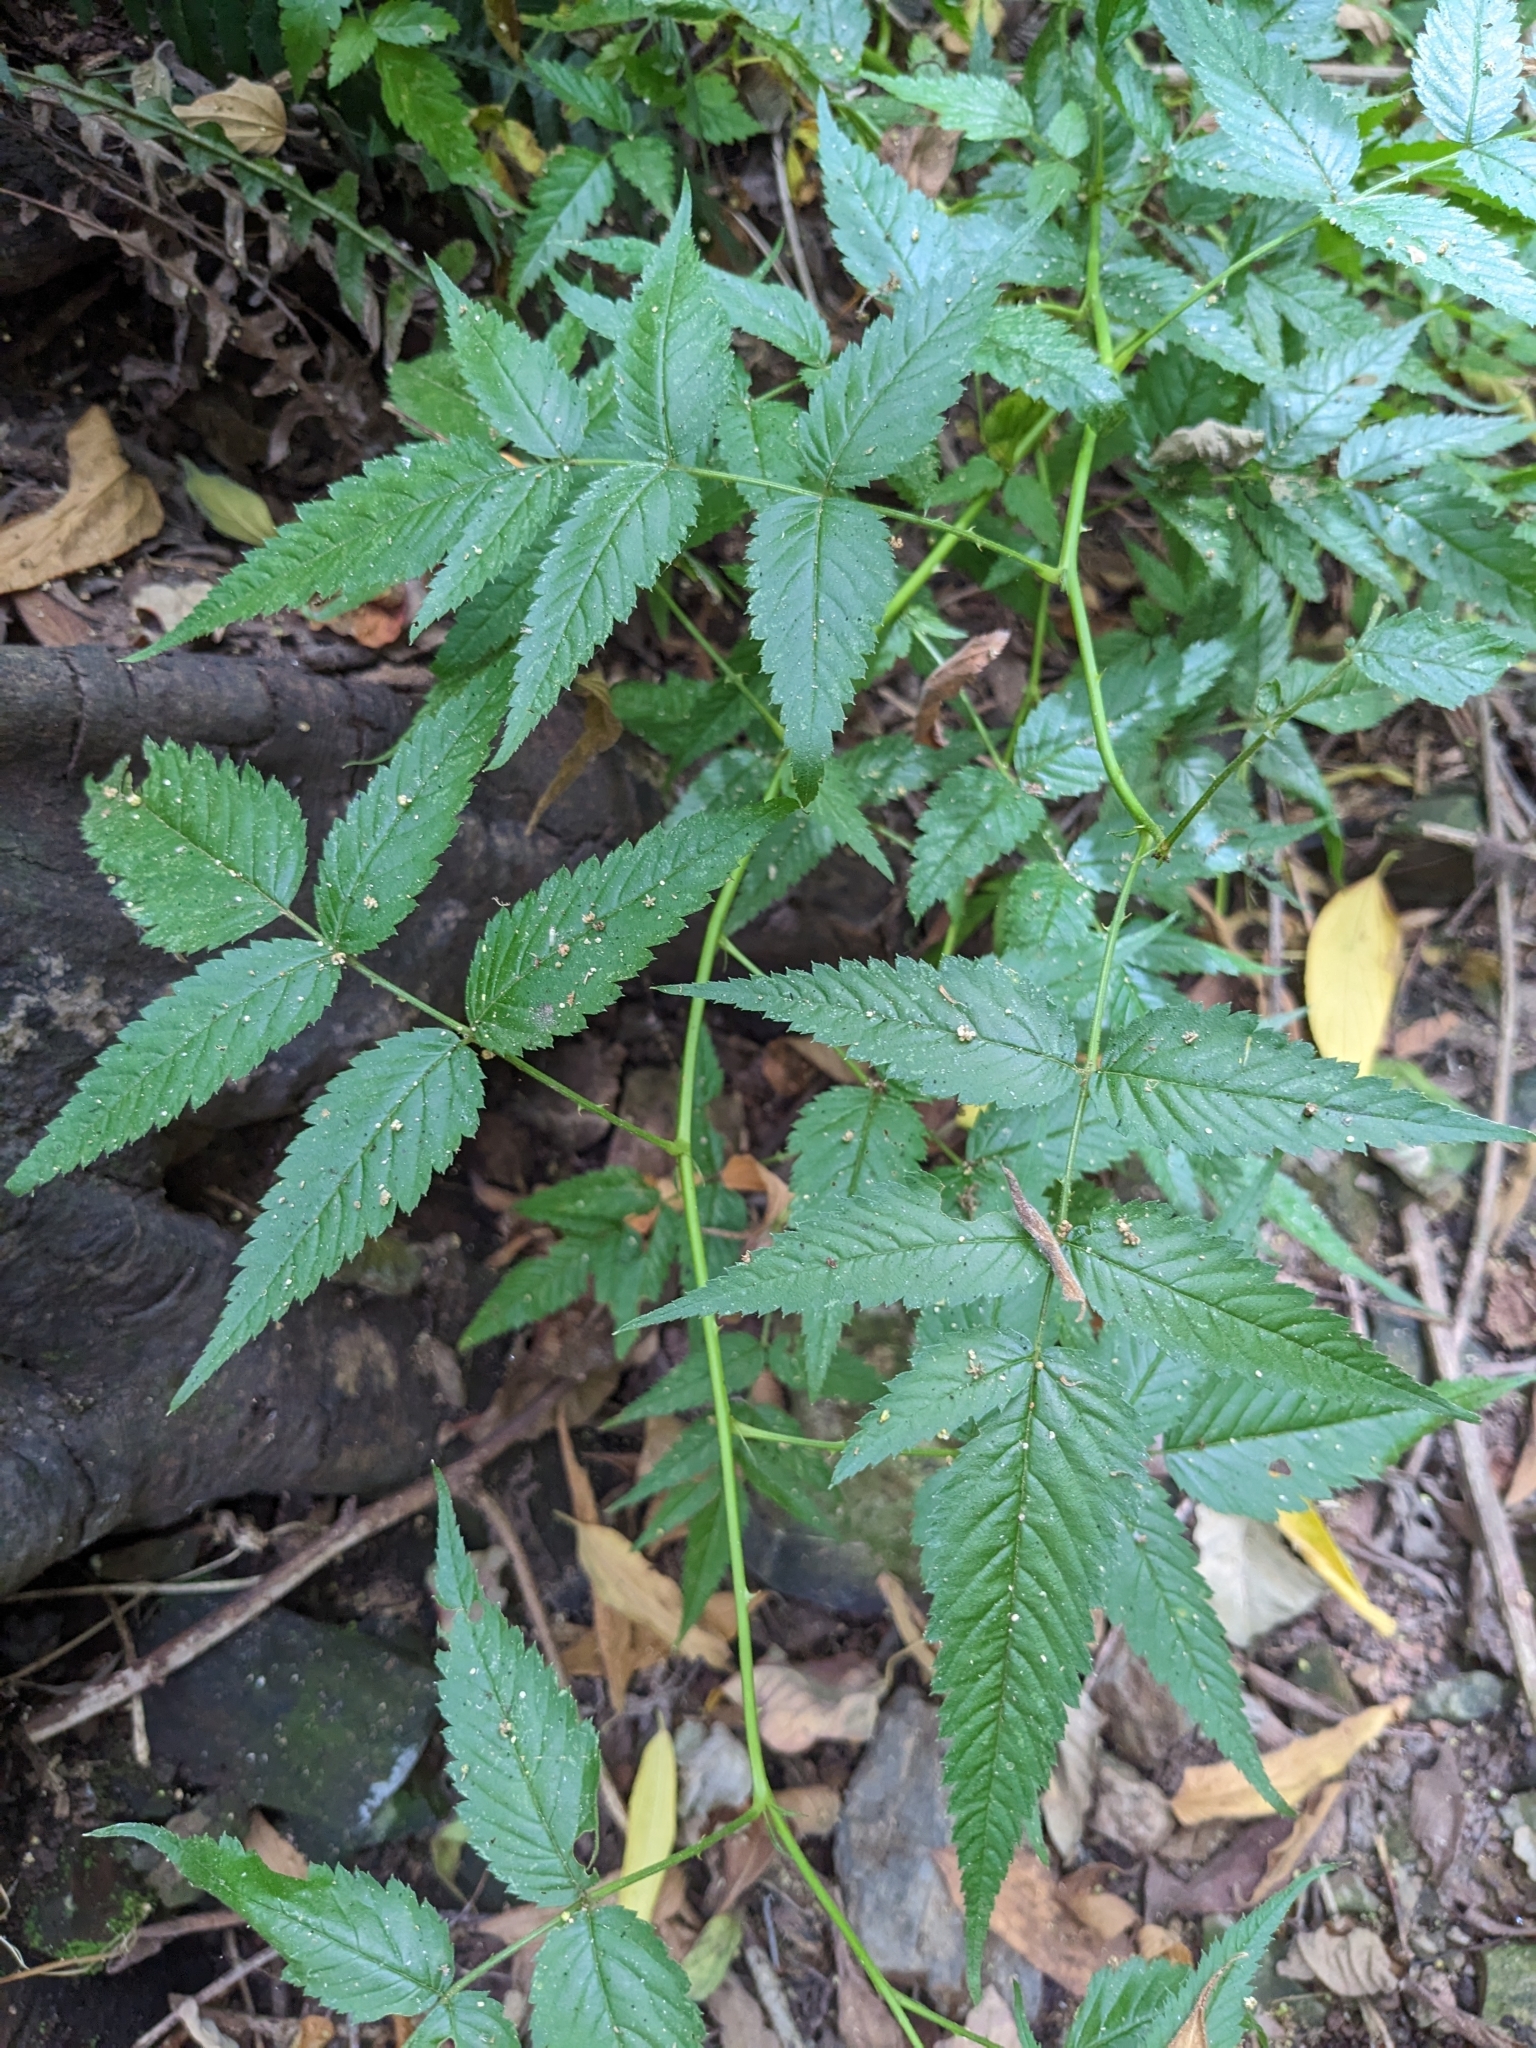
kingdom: Plantae
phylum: Tracheophyta
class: Magnoliopsida
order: Rosales
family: Rosaceae
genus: Rubus
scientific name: Rubus rosifolius
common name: Roseleaf raspberry
